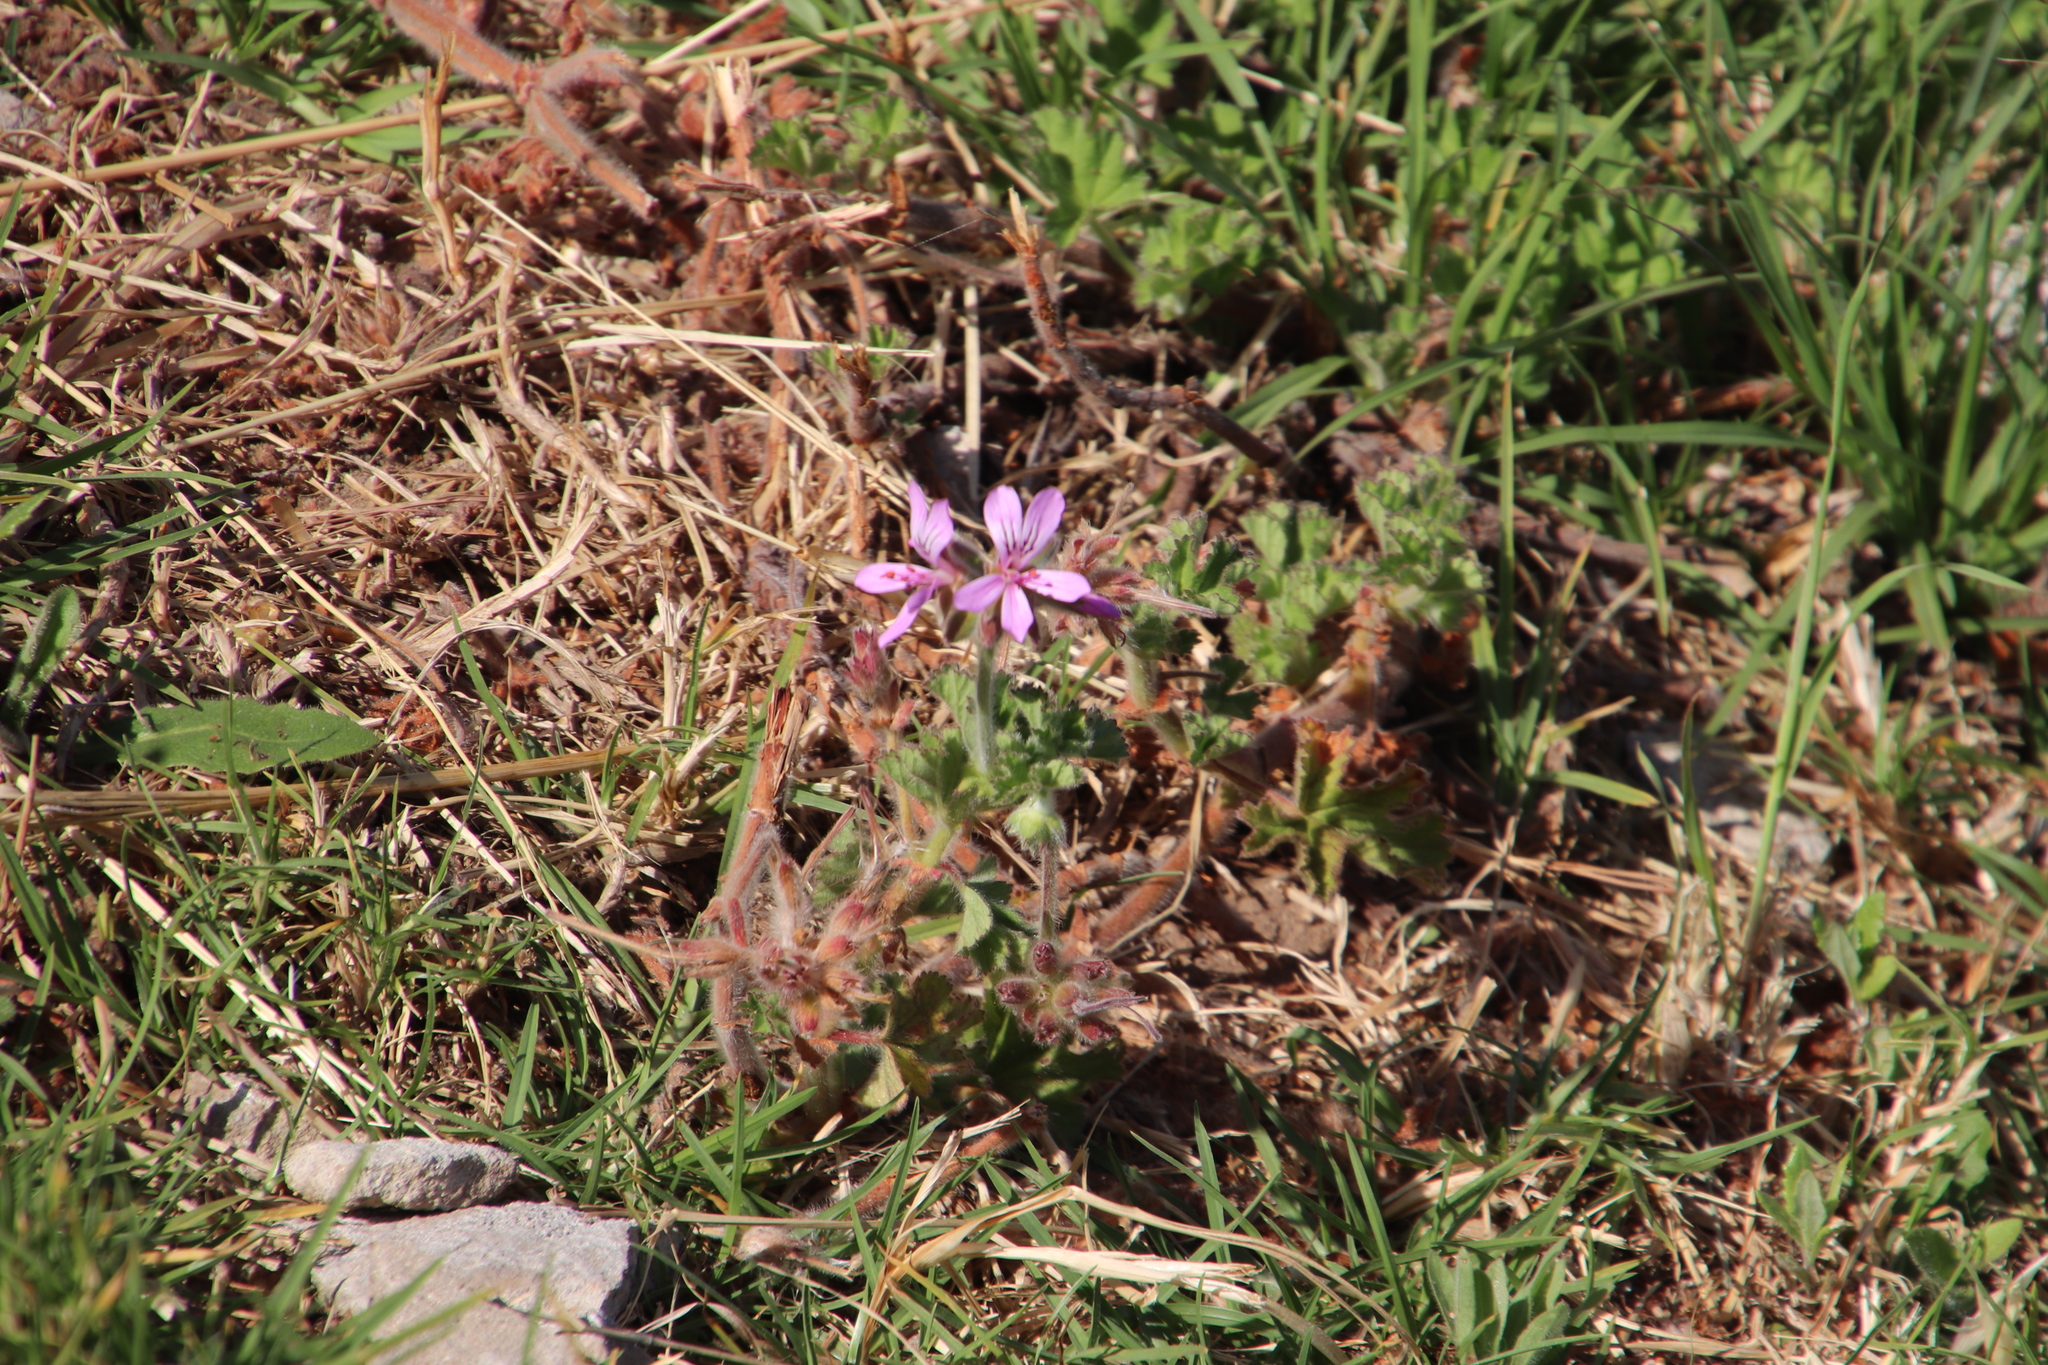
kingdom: Plantae
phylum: Tracheophyta
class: Magnoliopsida
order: Geraniales
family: Geraniaceae
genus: Pelargonium
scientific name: Pelargonium capitatum
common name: Rose scented geranium
